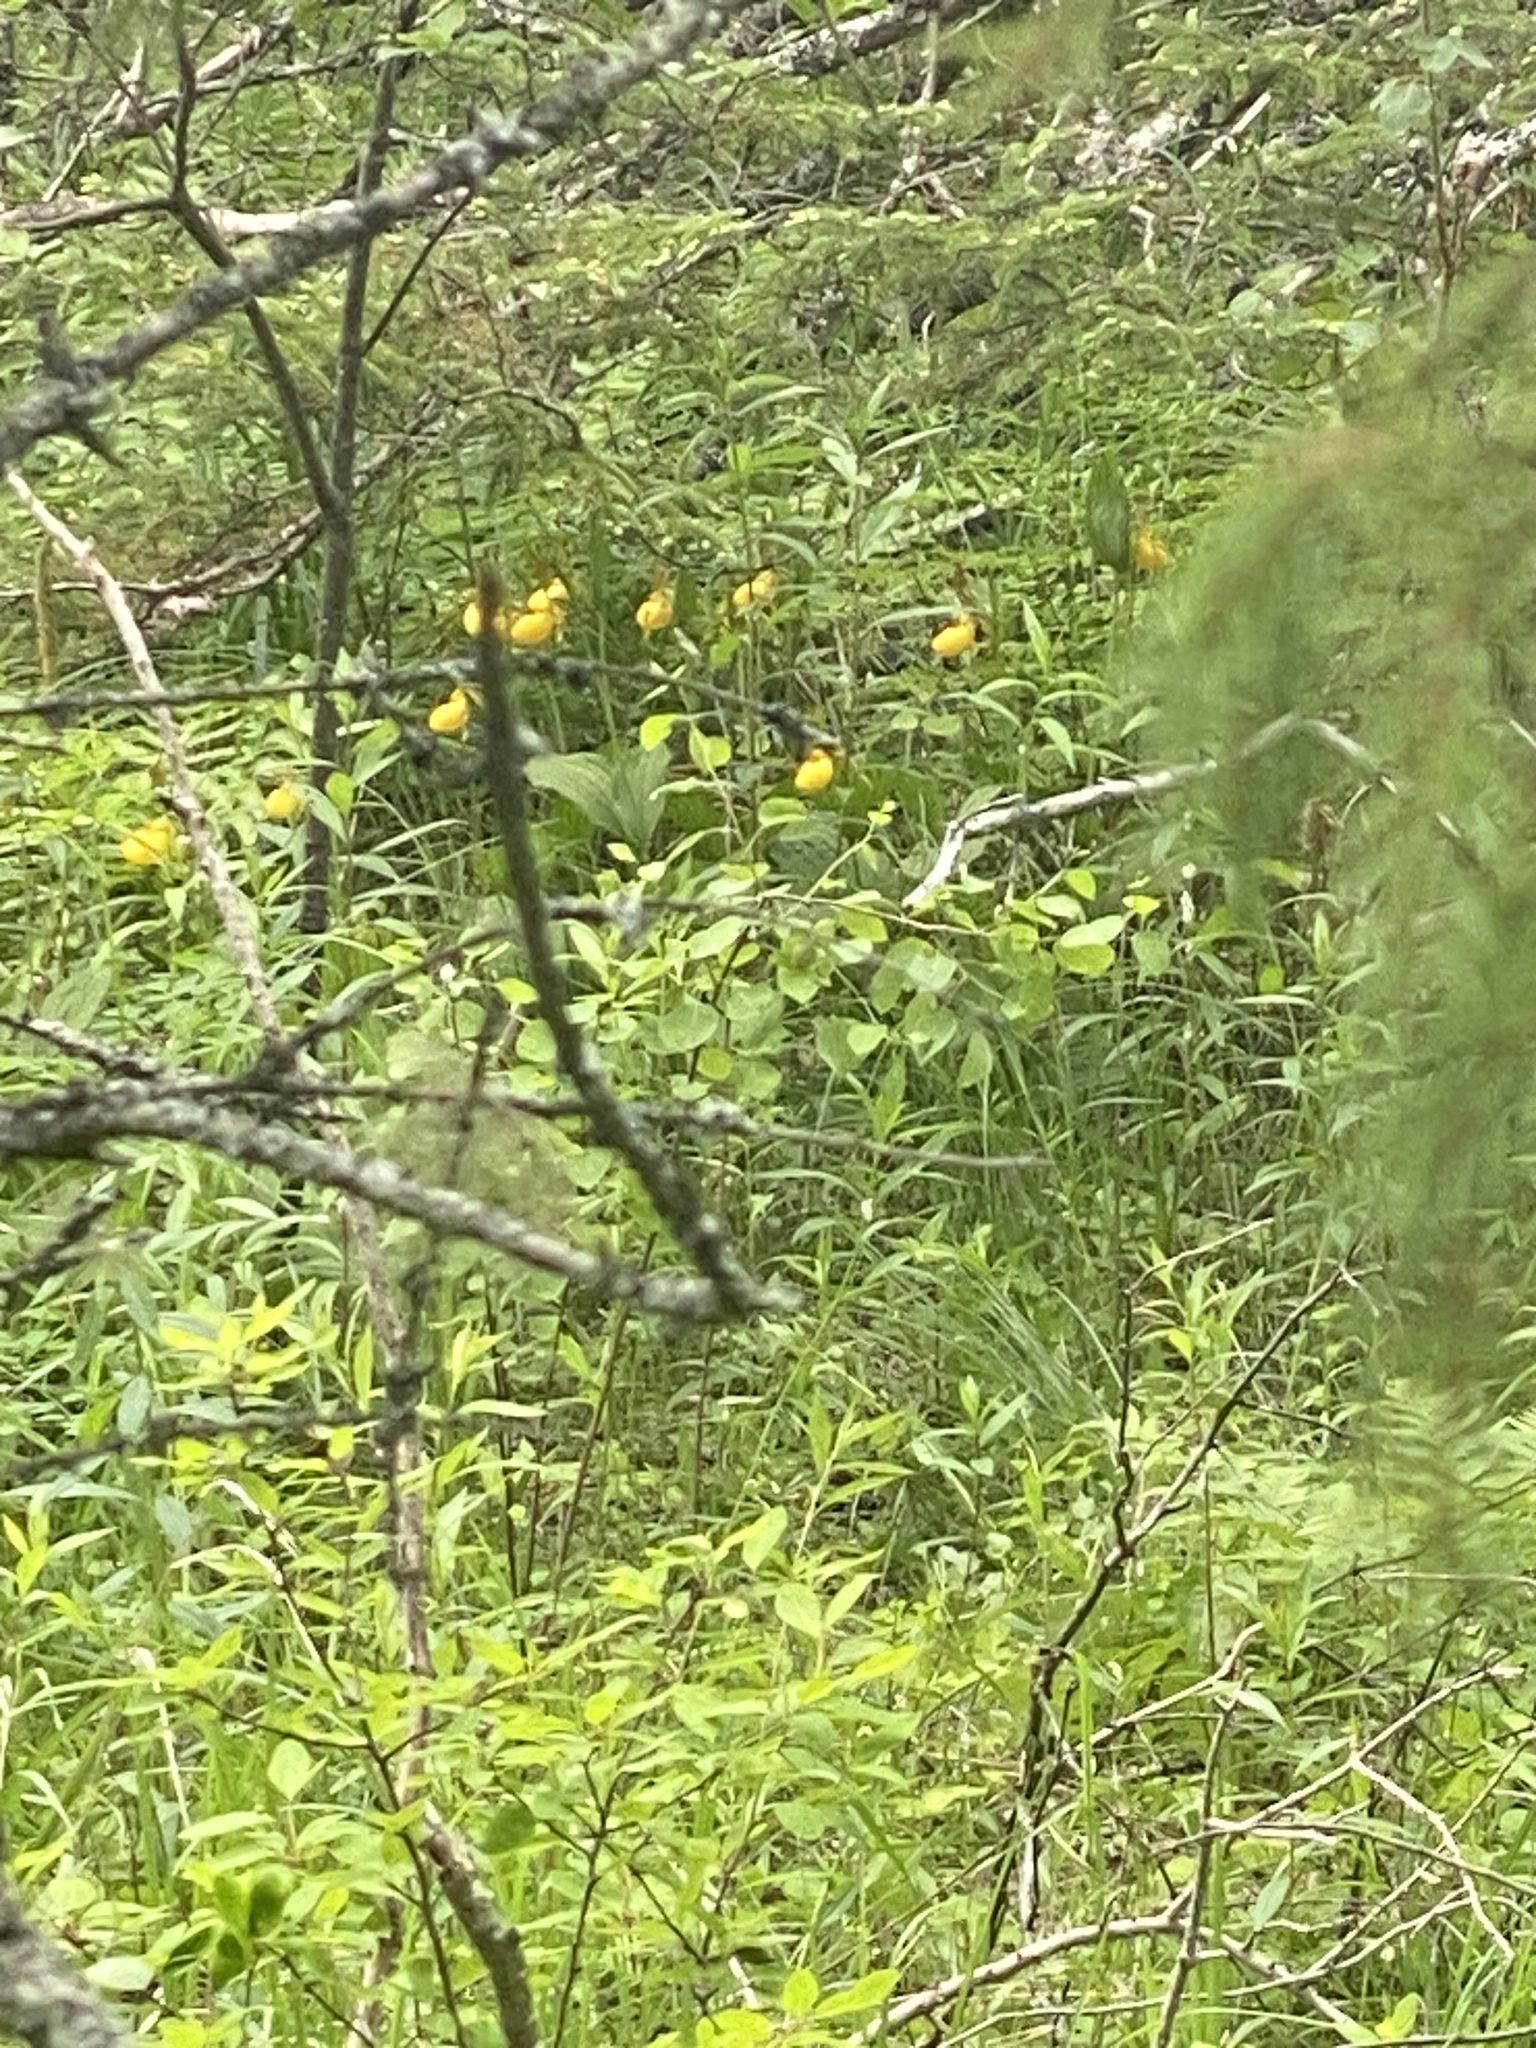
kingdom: Plantae
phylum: Tracheophyta
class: Liliopsida
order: Asparagales
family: Orchidaceae
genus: Cypripedium
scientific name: Cypripedium parviflorum
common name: American yellow lady's-slipper
